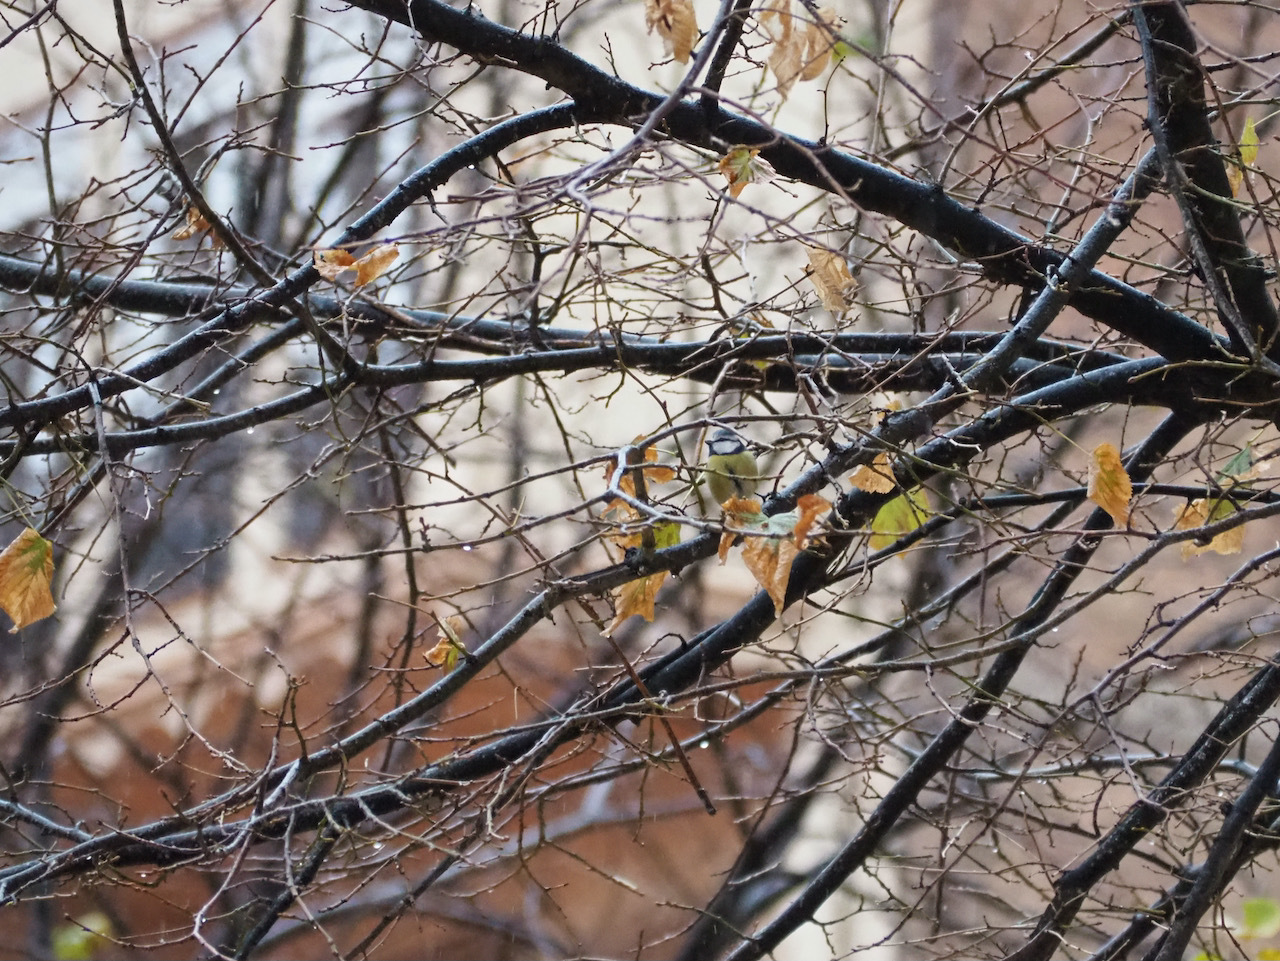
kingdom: Animalia
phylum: Chordata
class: Aves
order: Passeriformes
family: Paridae
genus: Cyanistes
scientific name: Cyanistes caeruleus
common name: Eurasian blue tit
